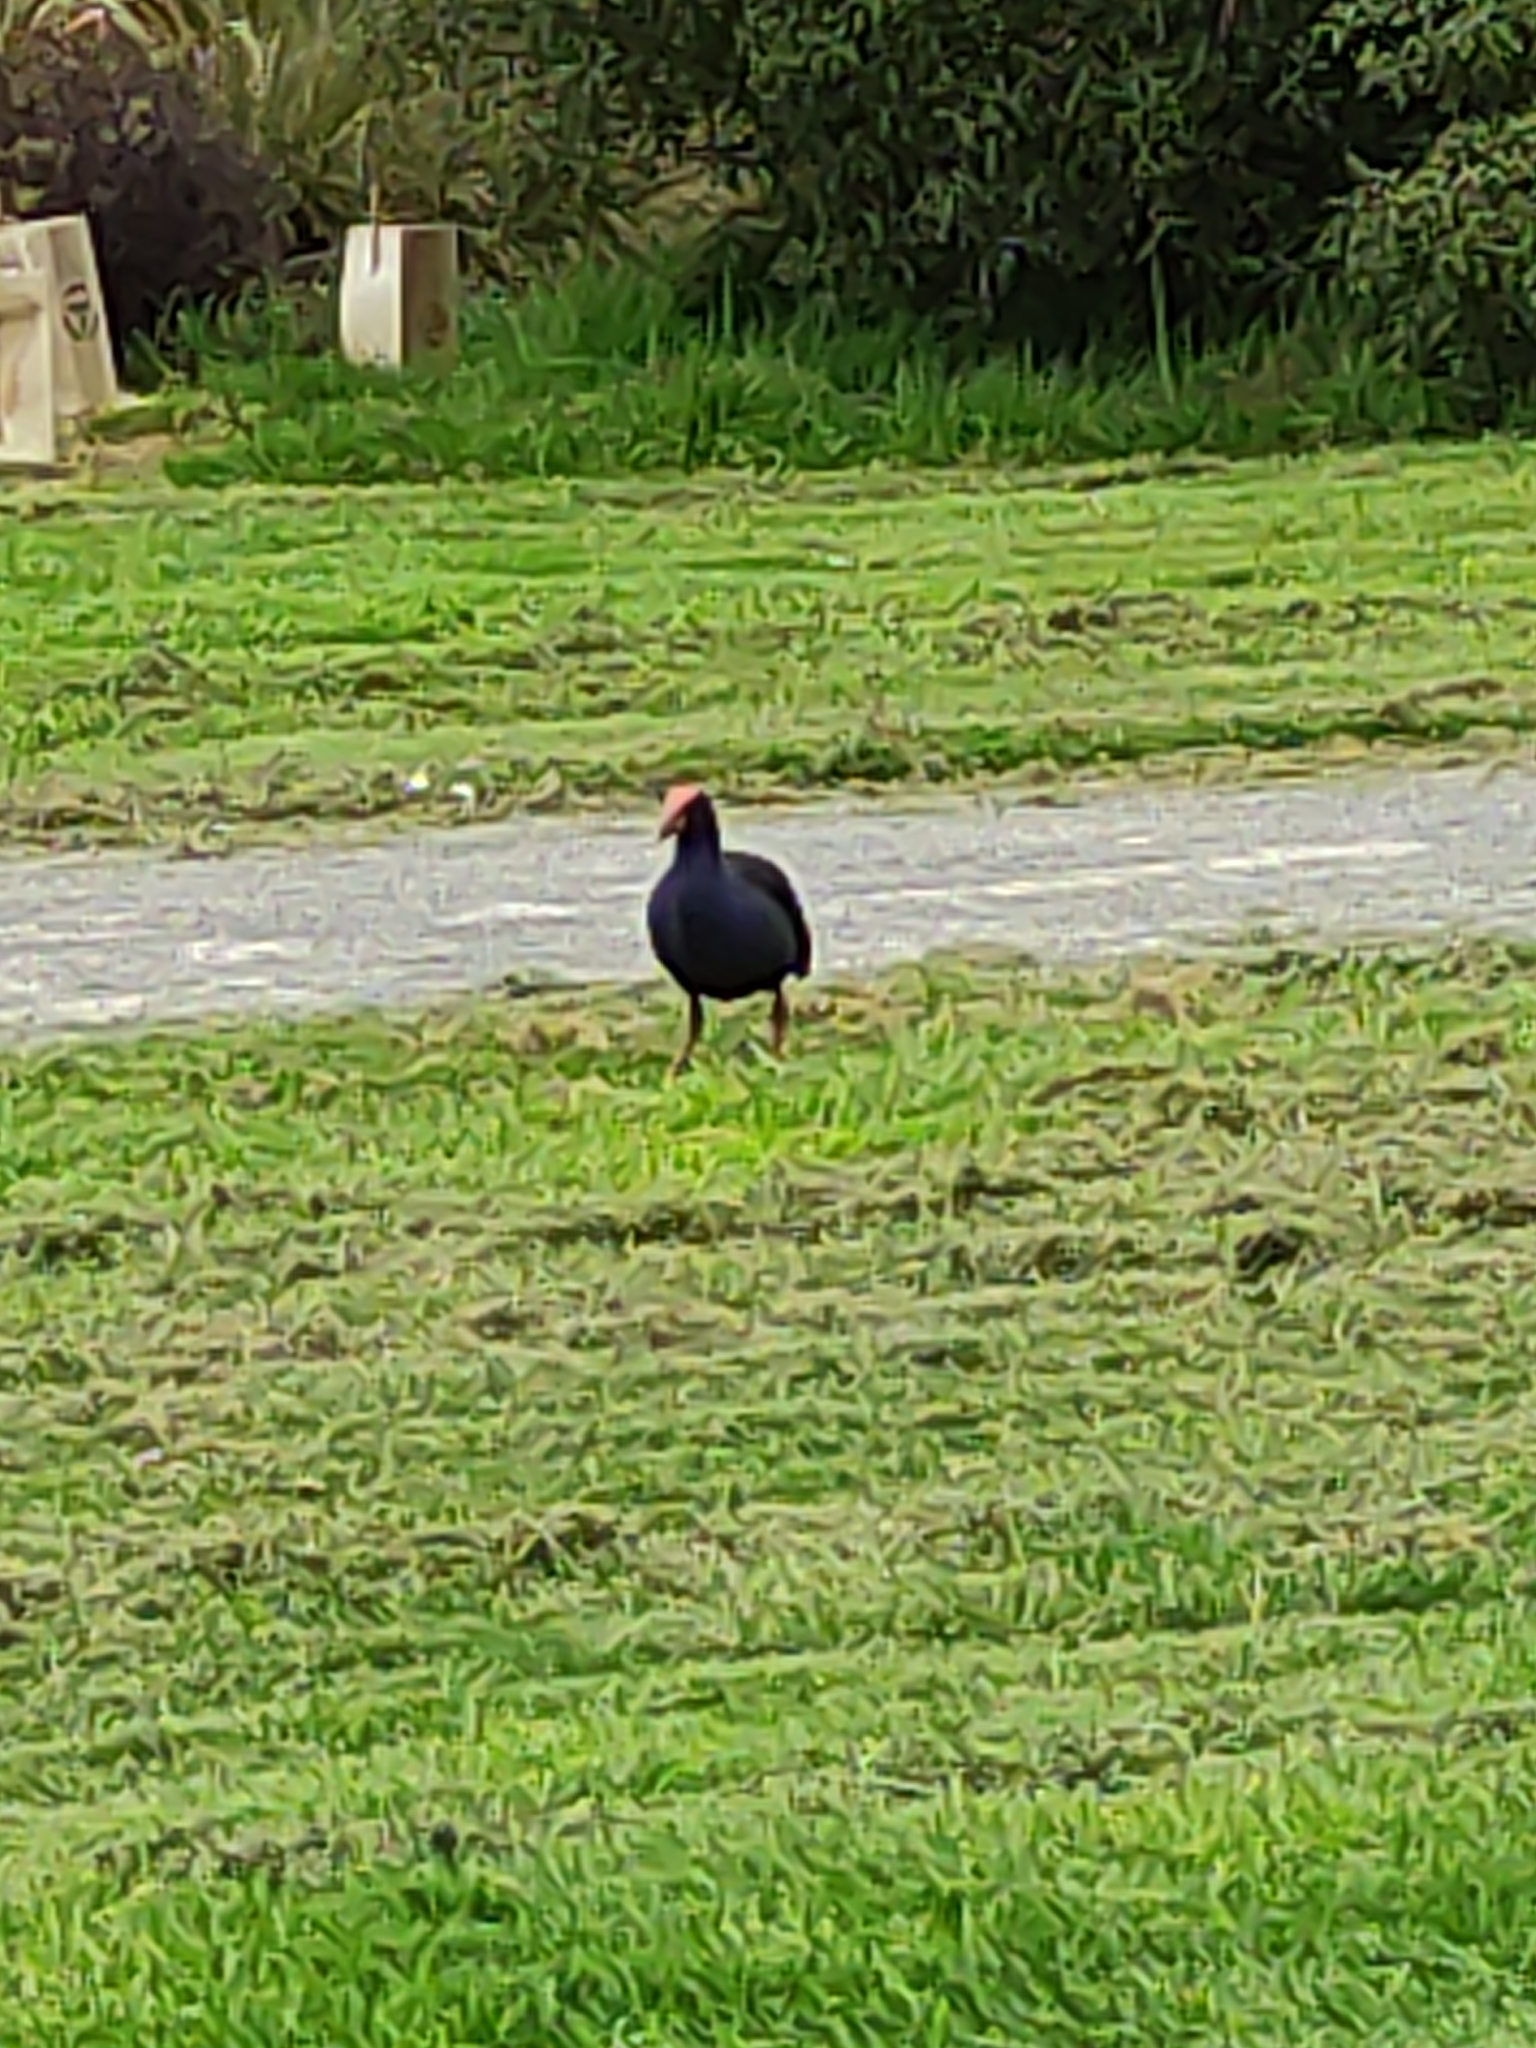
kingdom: Animalia
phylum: Chordata
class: Aves
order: Gruiformes
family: Rallidae
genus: Porphyrio
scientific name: Porphyrio melanotus
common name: Australasian swamphen
